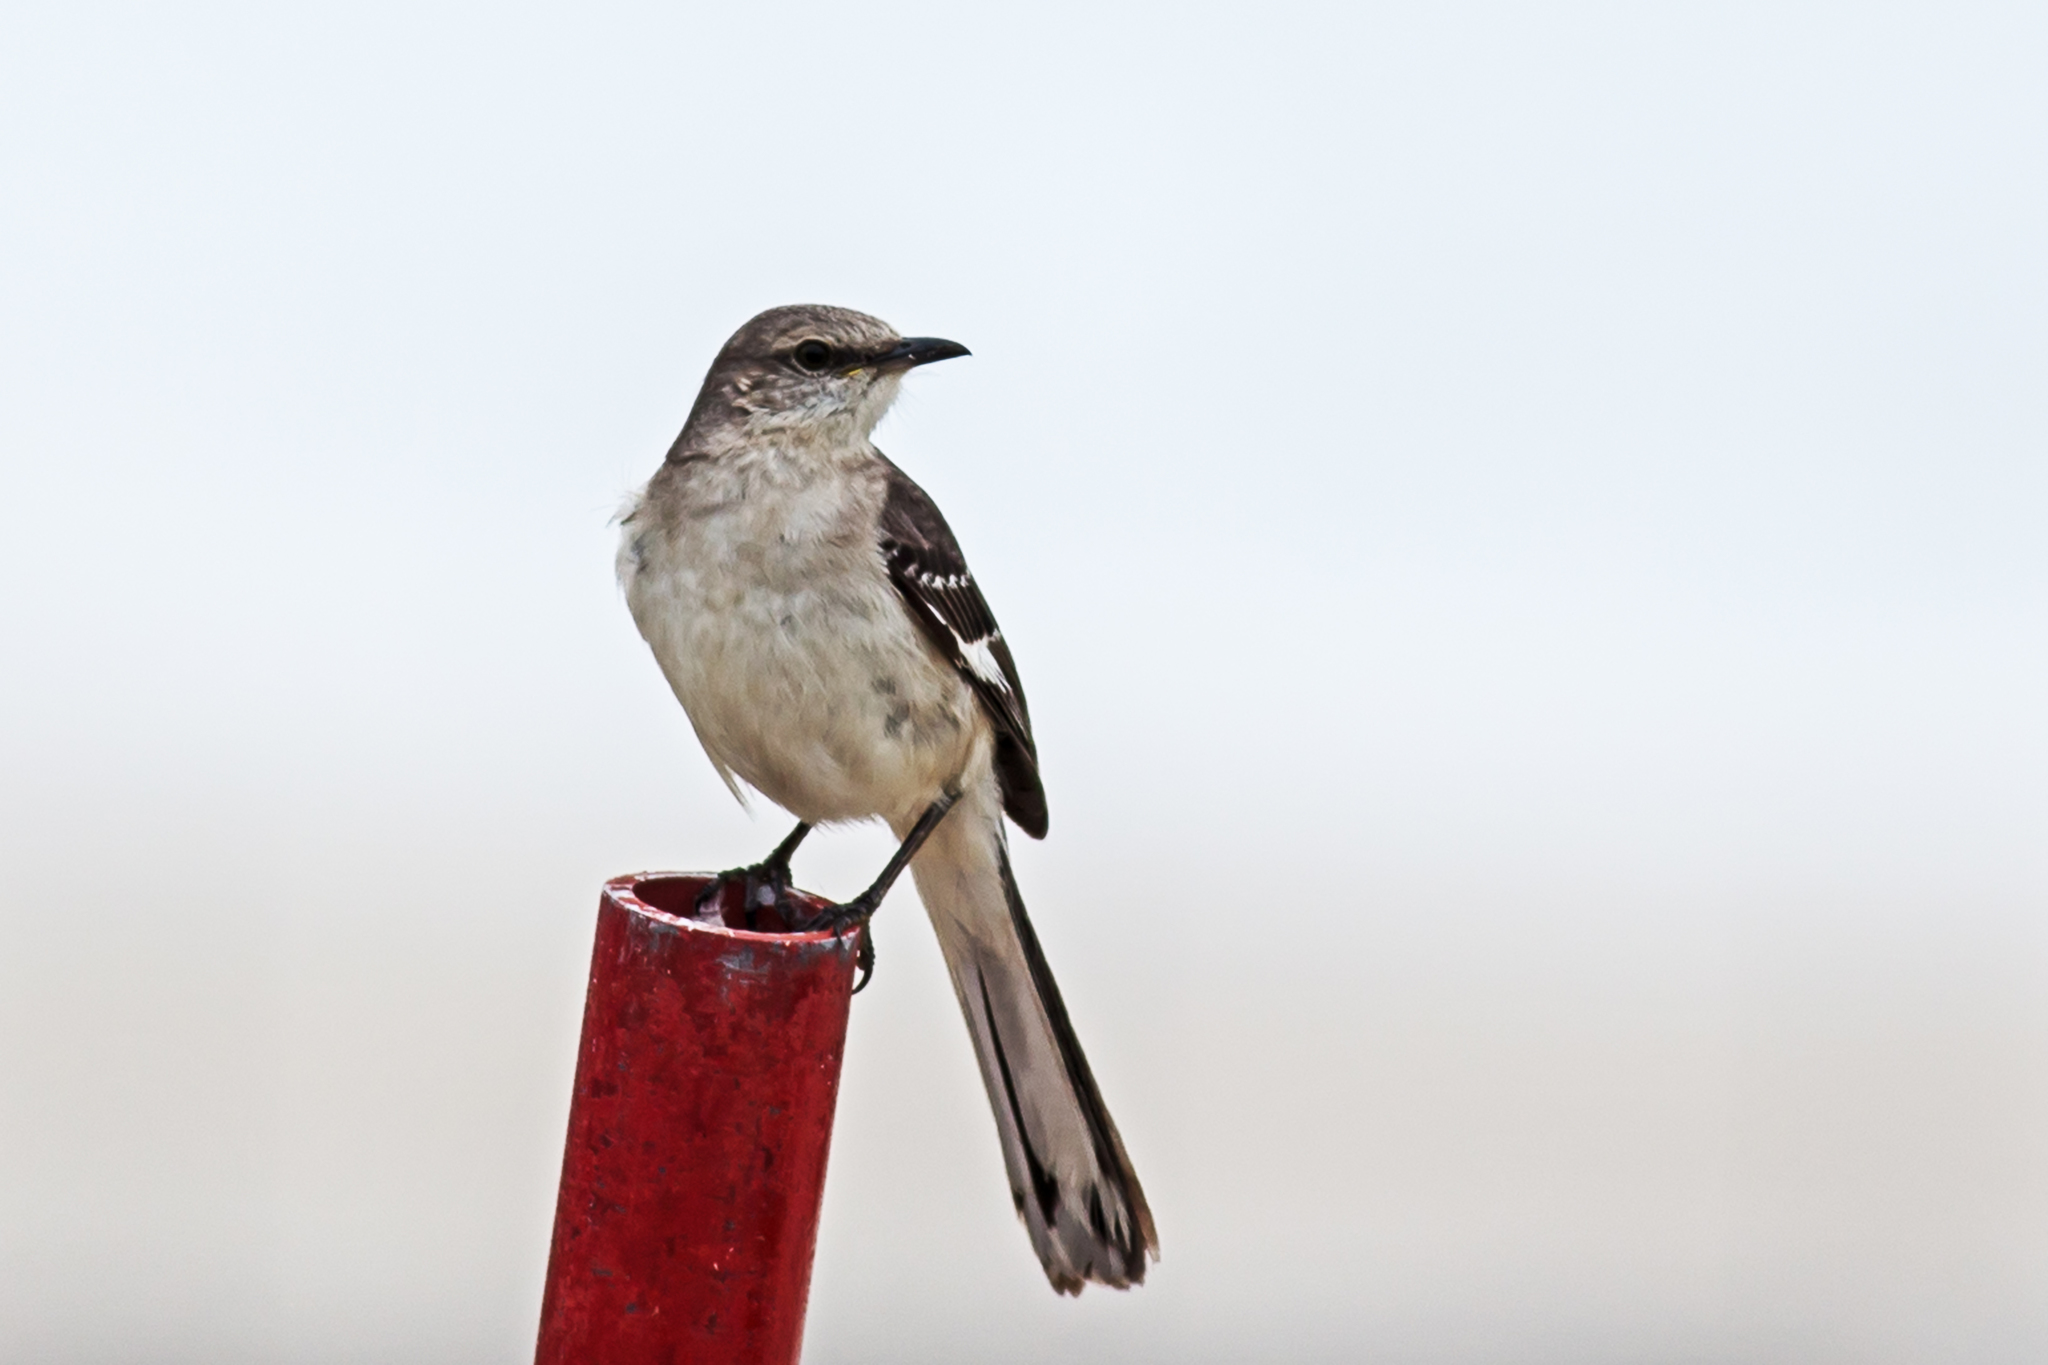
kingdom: Animalia
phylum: Chordata
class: Aves
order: Passeriformes
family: Mimidae
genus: Mimus
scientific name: Mimus polyglottos
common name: Northern mockingbird
